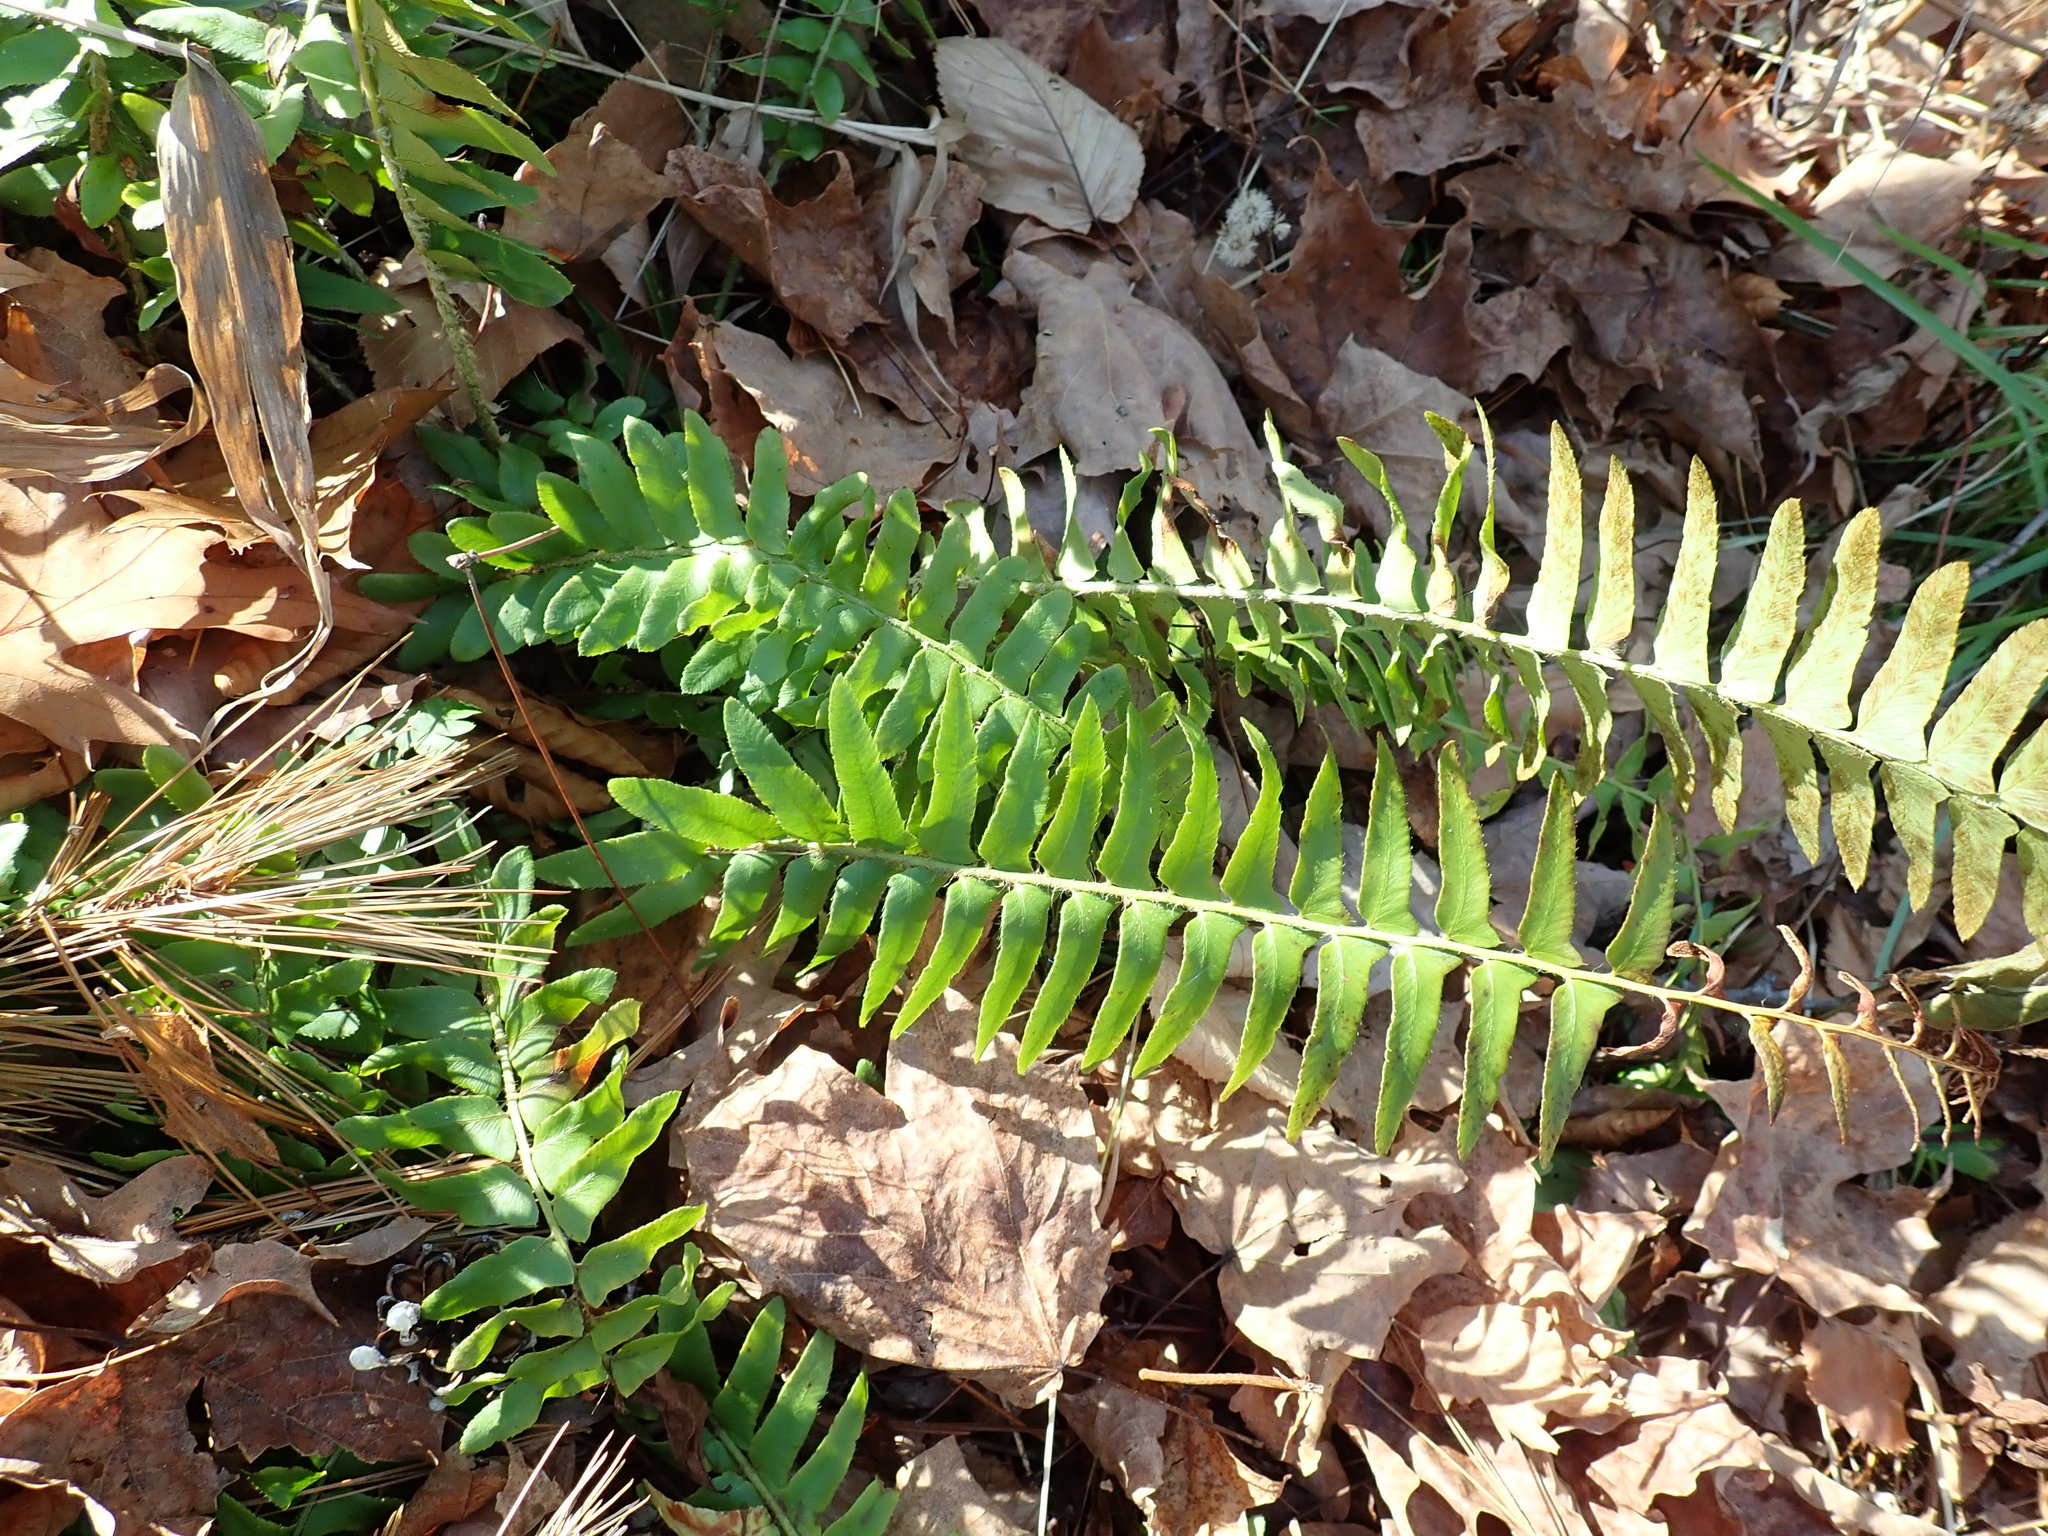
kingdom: Plantae
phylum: Tracheophyta
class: Polypodiopsida
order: Polypodiales
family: Dryopteridaceae
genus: Polystichum
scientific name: Polystichum acrostichoides
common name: Christmas fern
